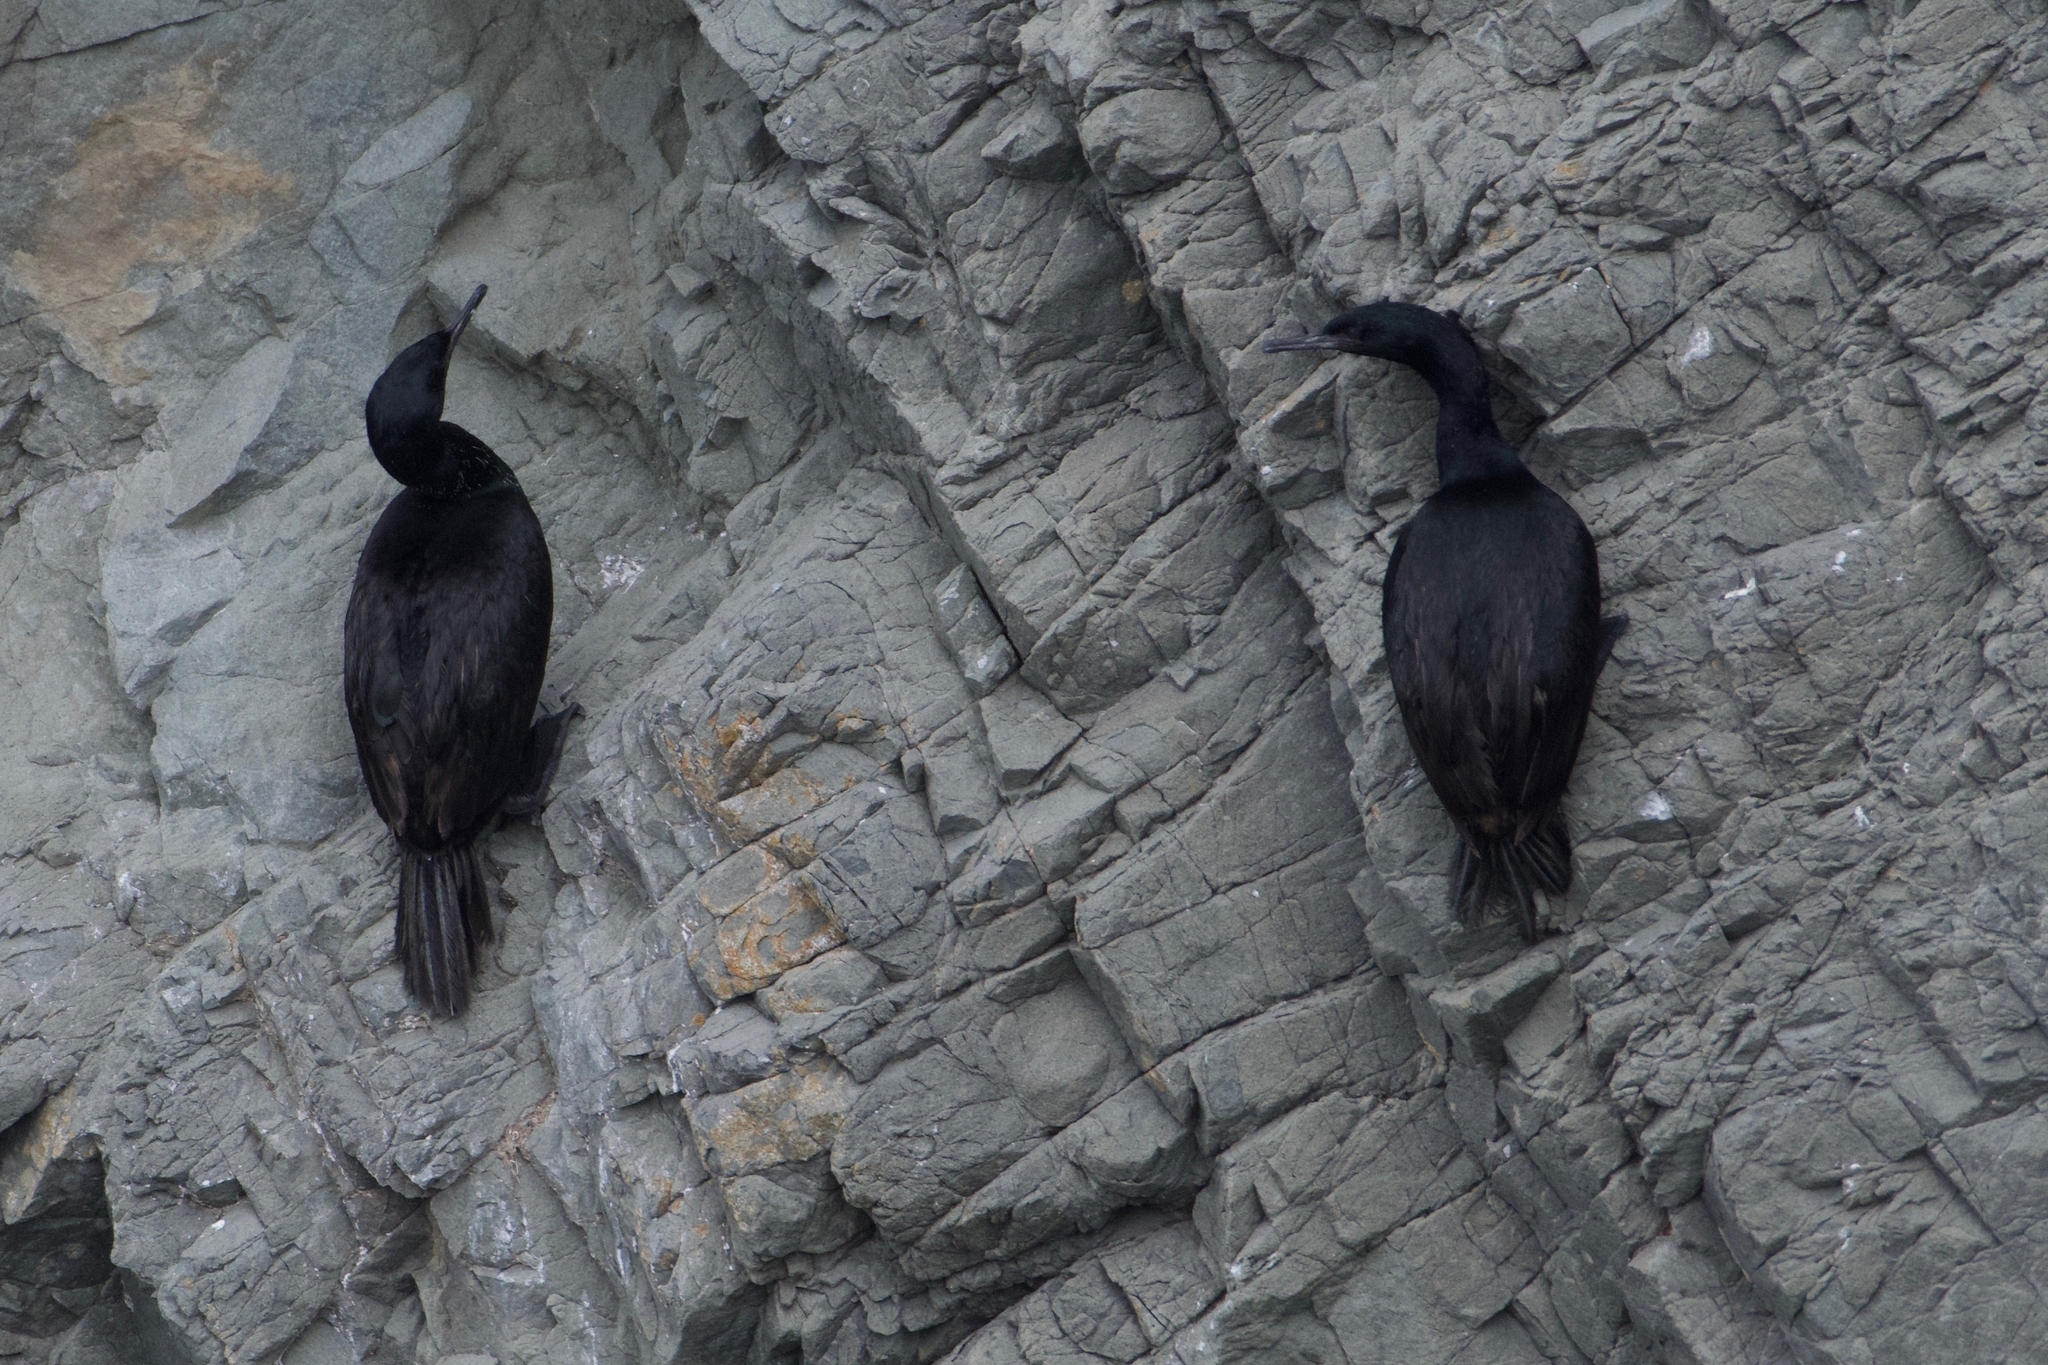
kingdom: Animalia
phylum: Chordata
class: Aves
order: Suliformes
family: Phalacrocoracidae
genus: Phalacrocorax
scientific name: Phalacrocorax pelagicus
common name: Pelagic cormorant
